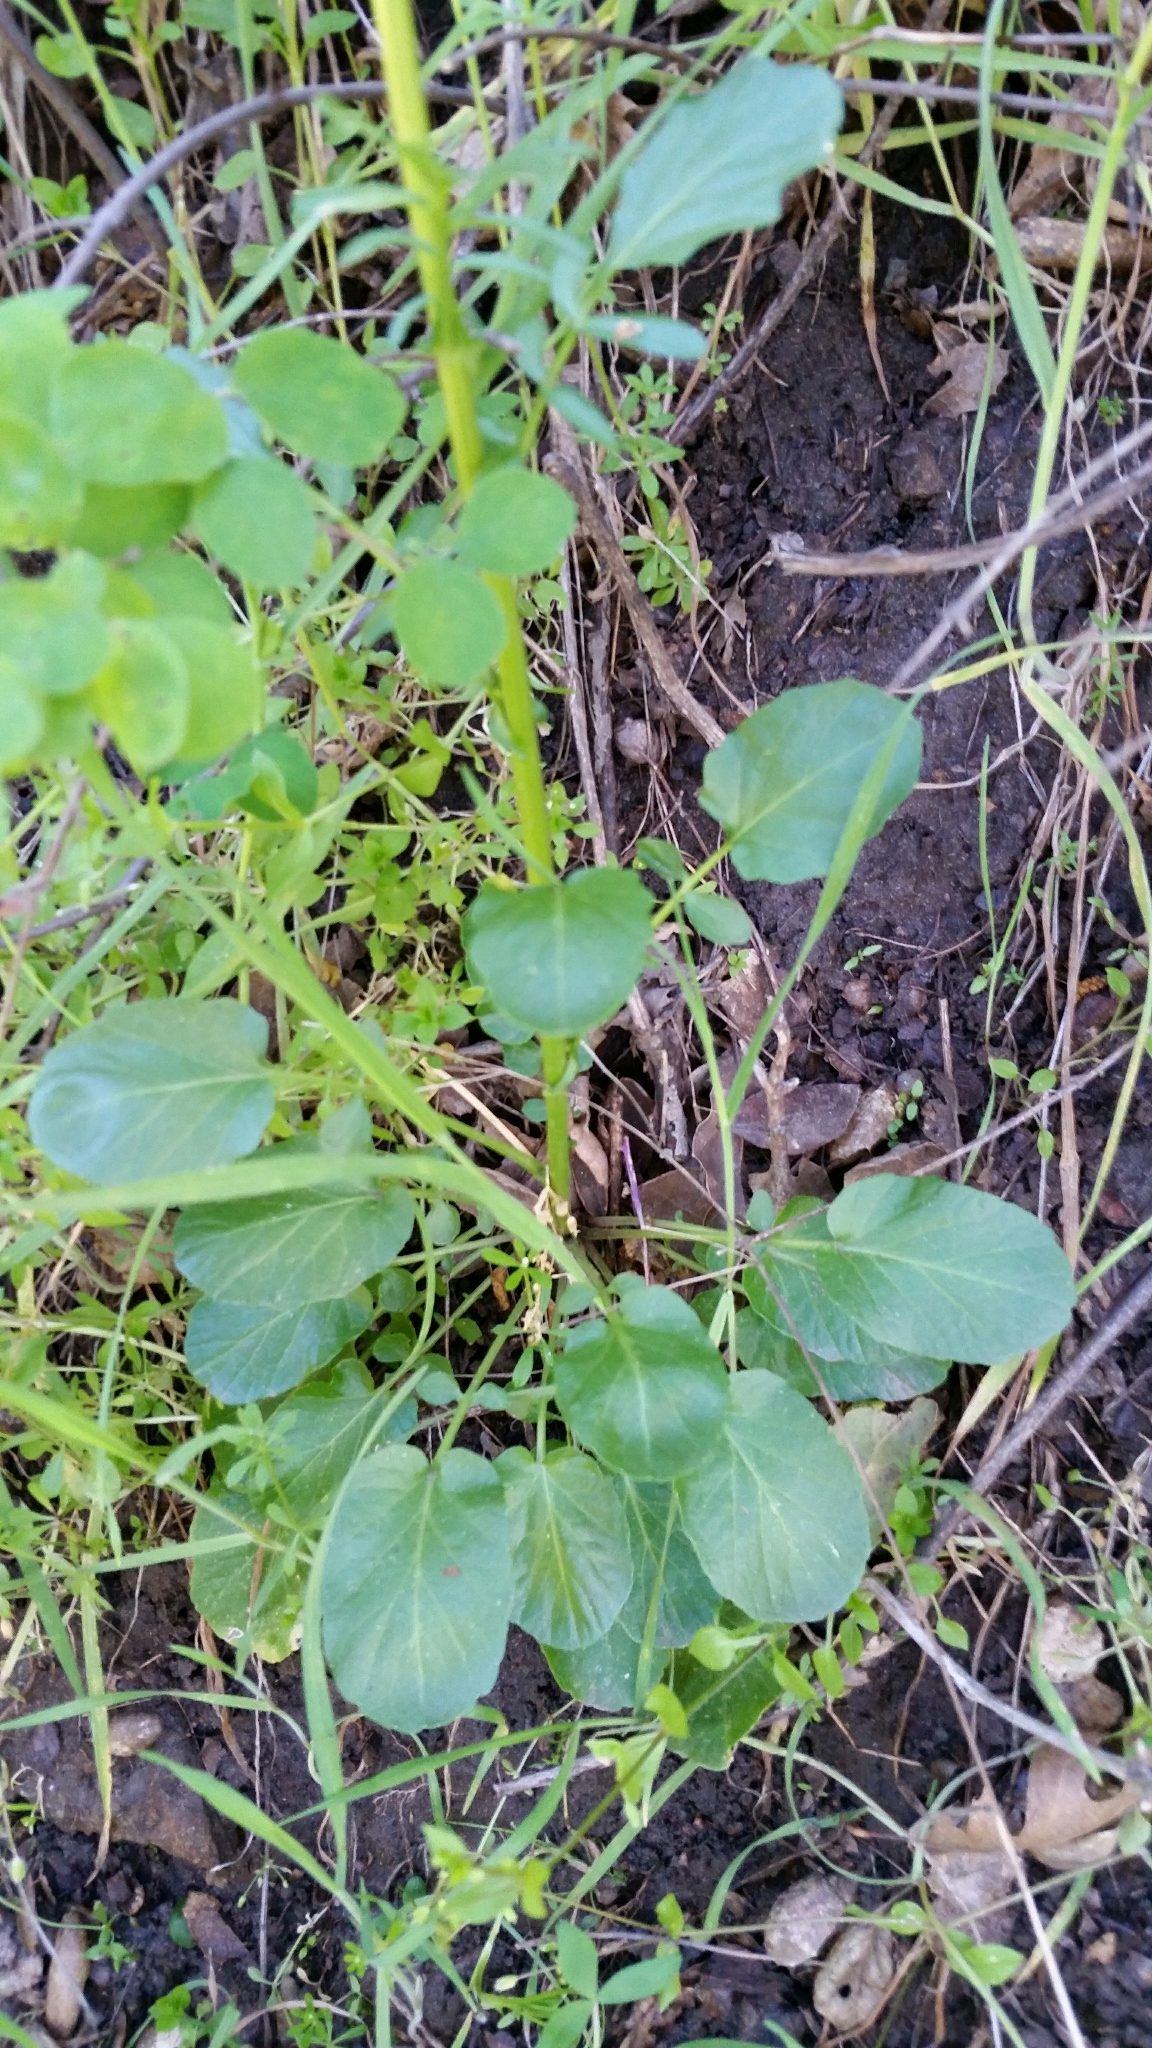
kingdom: Plantae
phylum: Tracheophyta
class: Magnoliopsida
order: Brassicales
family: Brassicaceae
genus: Barbarea
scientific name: Barbarea orthoceras
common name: American wintercress
